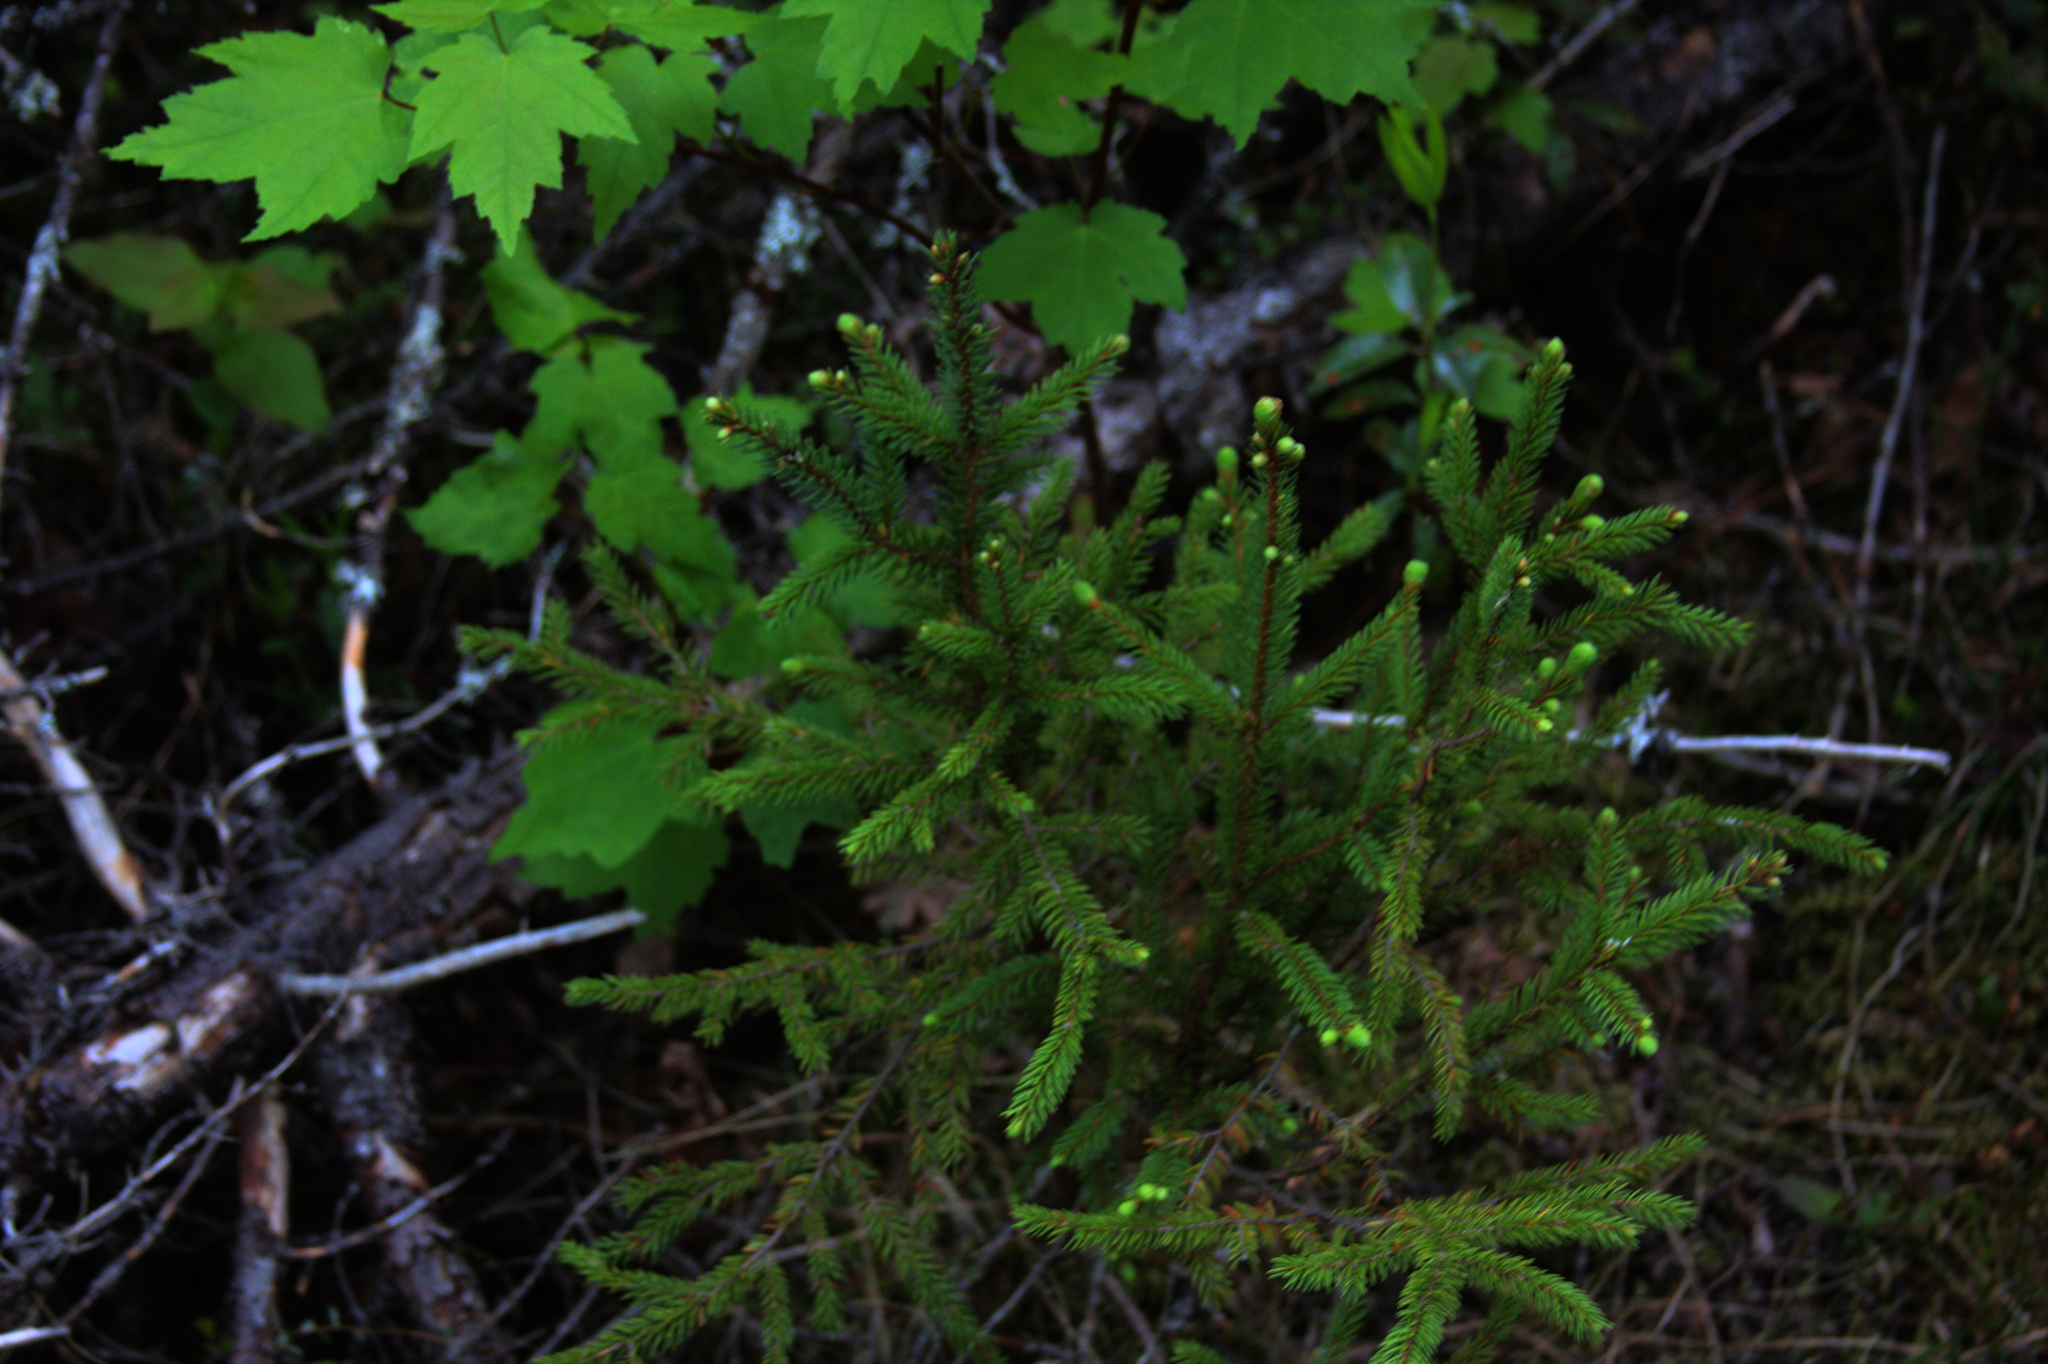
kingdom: Plantae
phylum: Tracheophyta
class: Pinopsida
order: Pinales
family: Pinaceae
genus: Picea
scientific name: Picea rubens
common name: Red spruce
